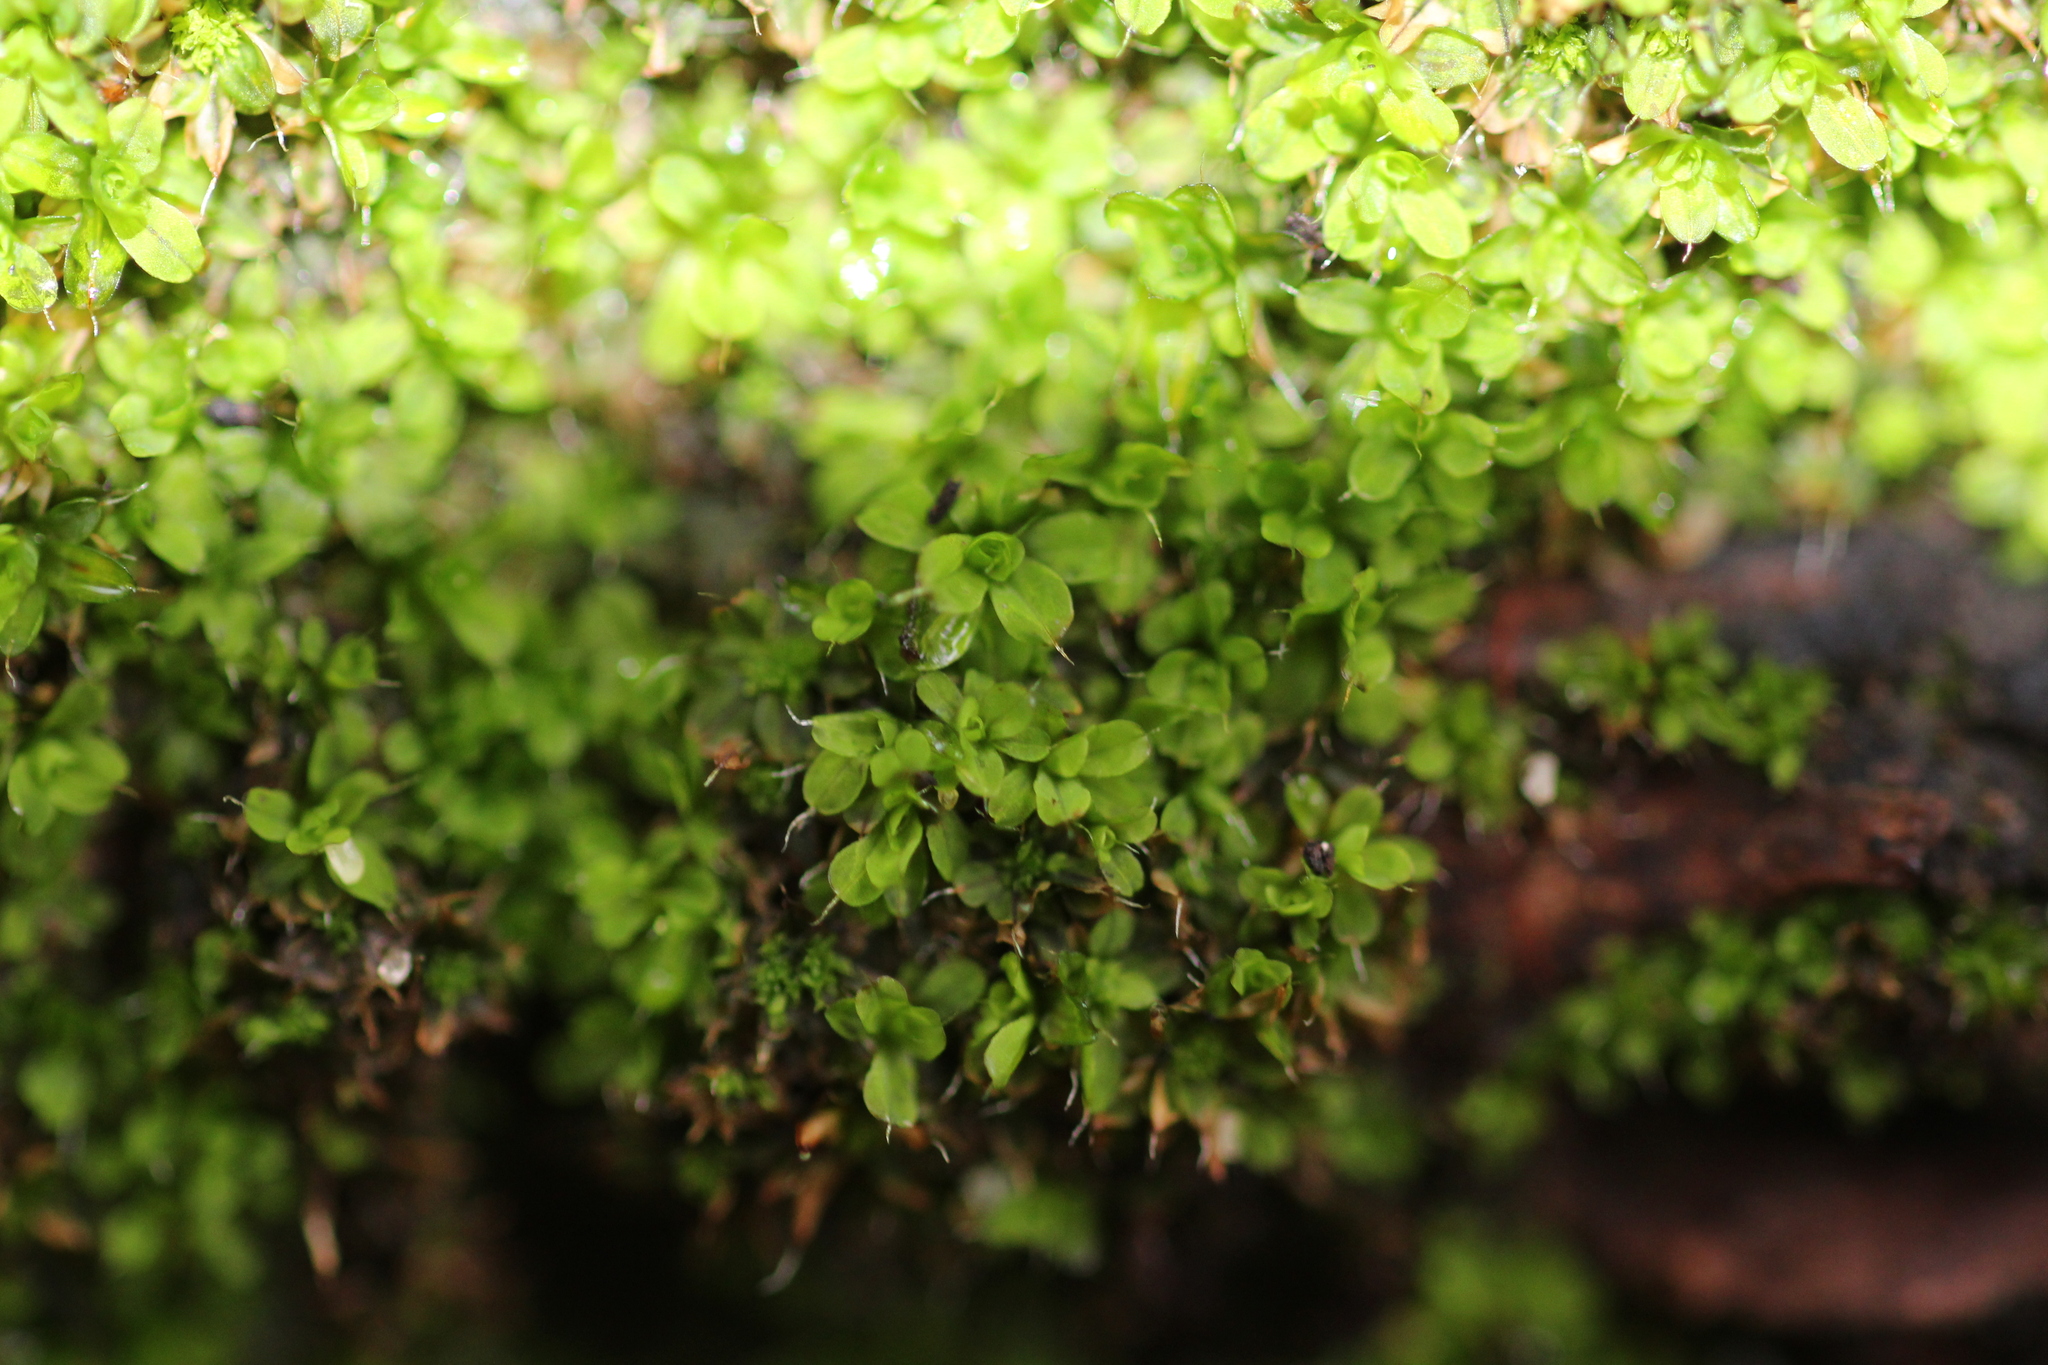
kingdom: Plantae
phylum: Bryophyta
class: Bryopsida
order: Pottiales
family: Pottiaceae
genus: Syntrichia
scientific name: Syntrichia pagorum
